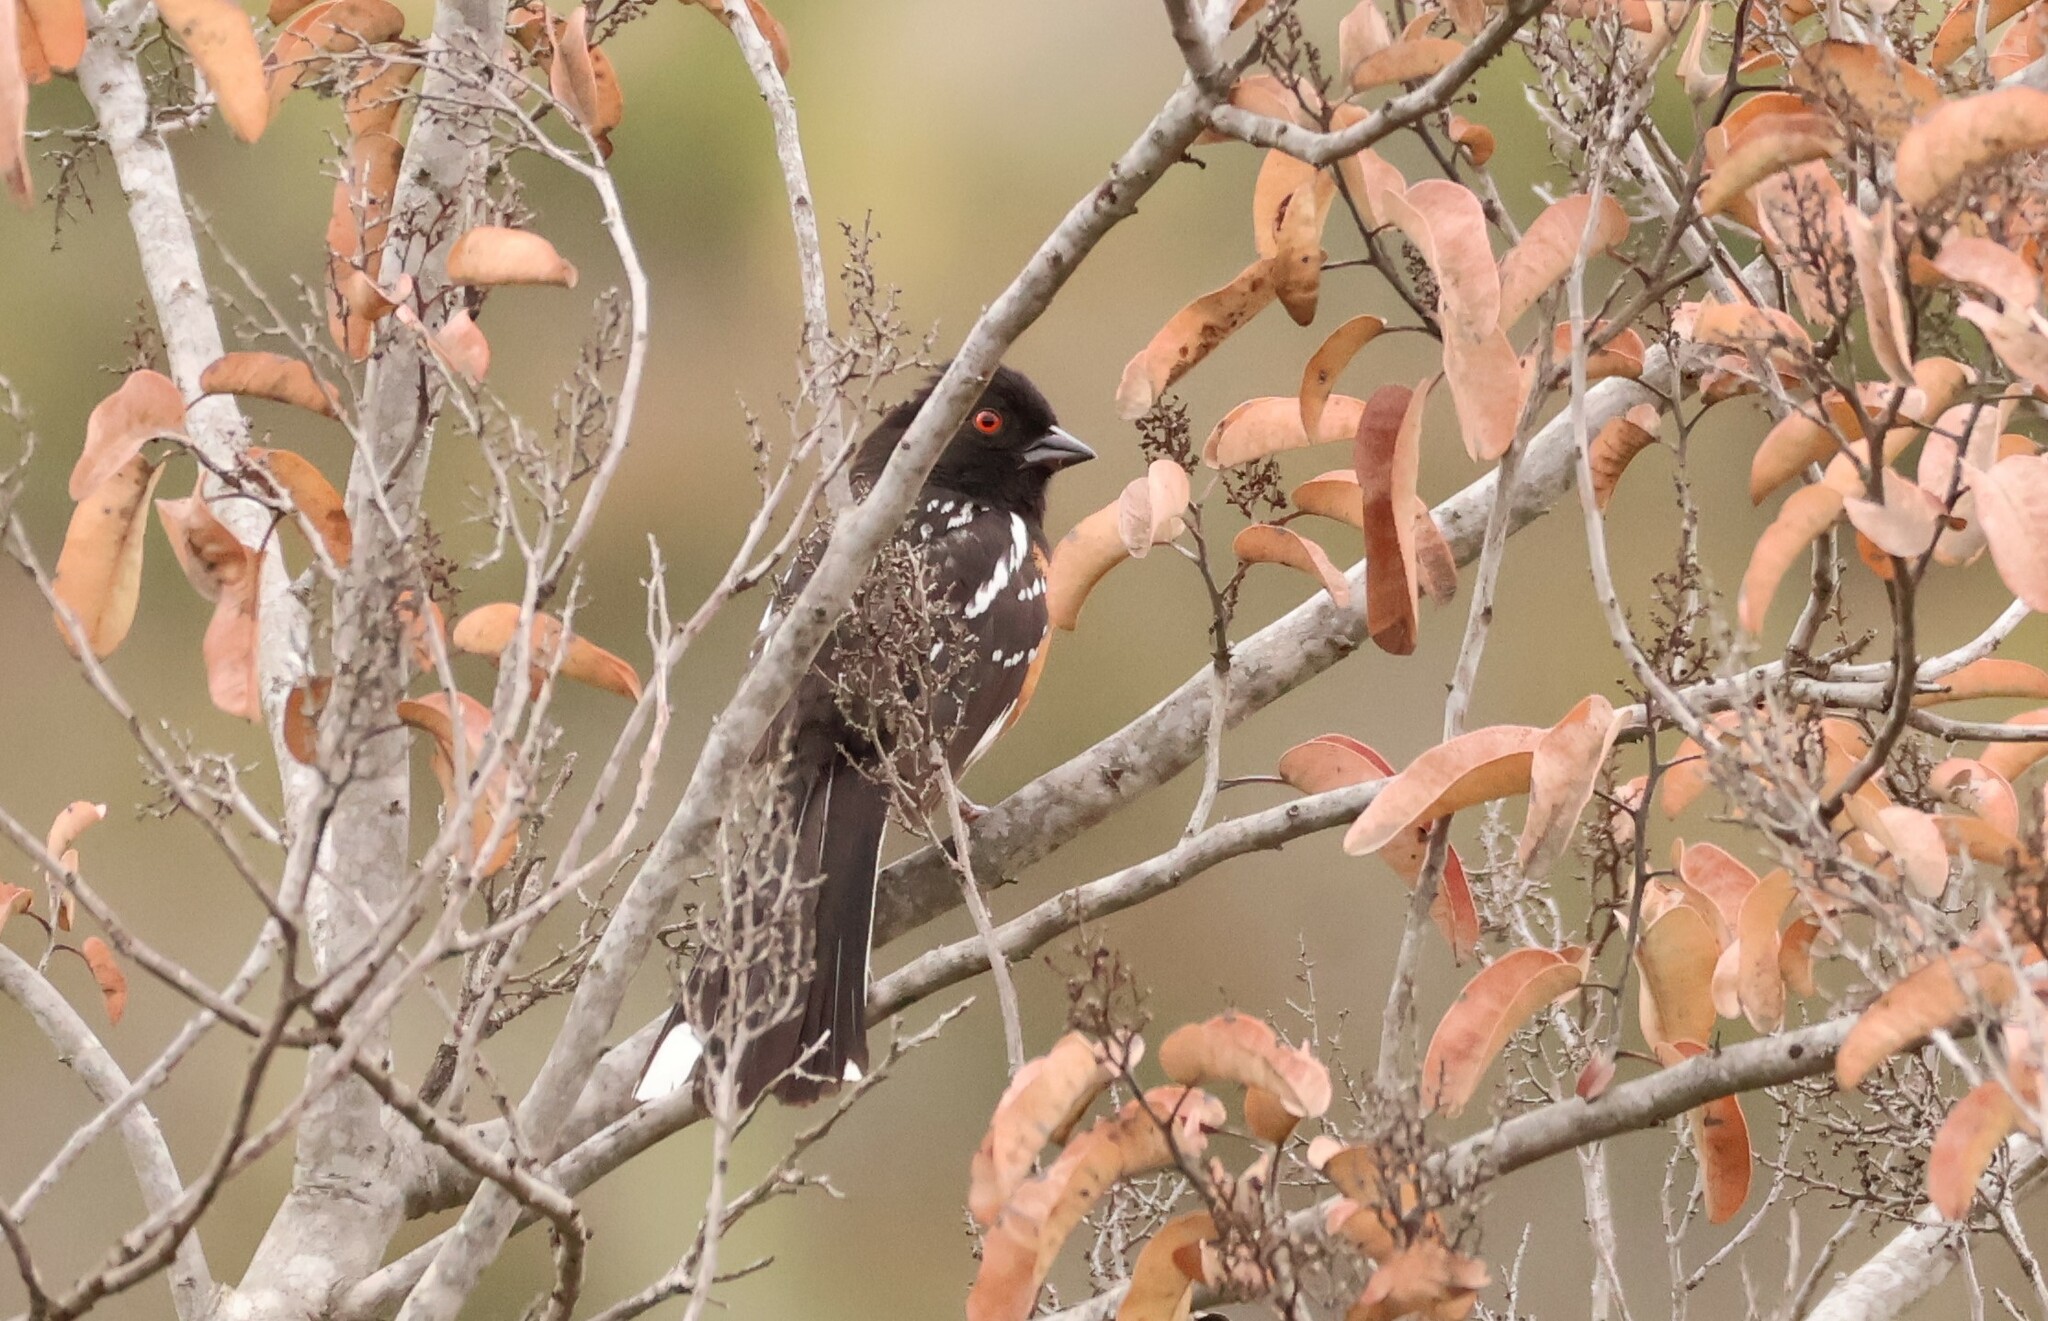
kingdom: Animalia
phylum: Chordata
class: Aves
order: Passeriformes
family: Passerellidae
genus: Pipilo
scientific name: Pipilo maculatus
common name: Spotted towhee
